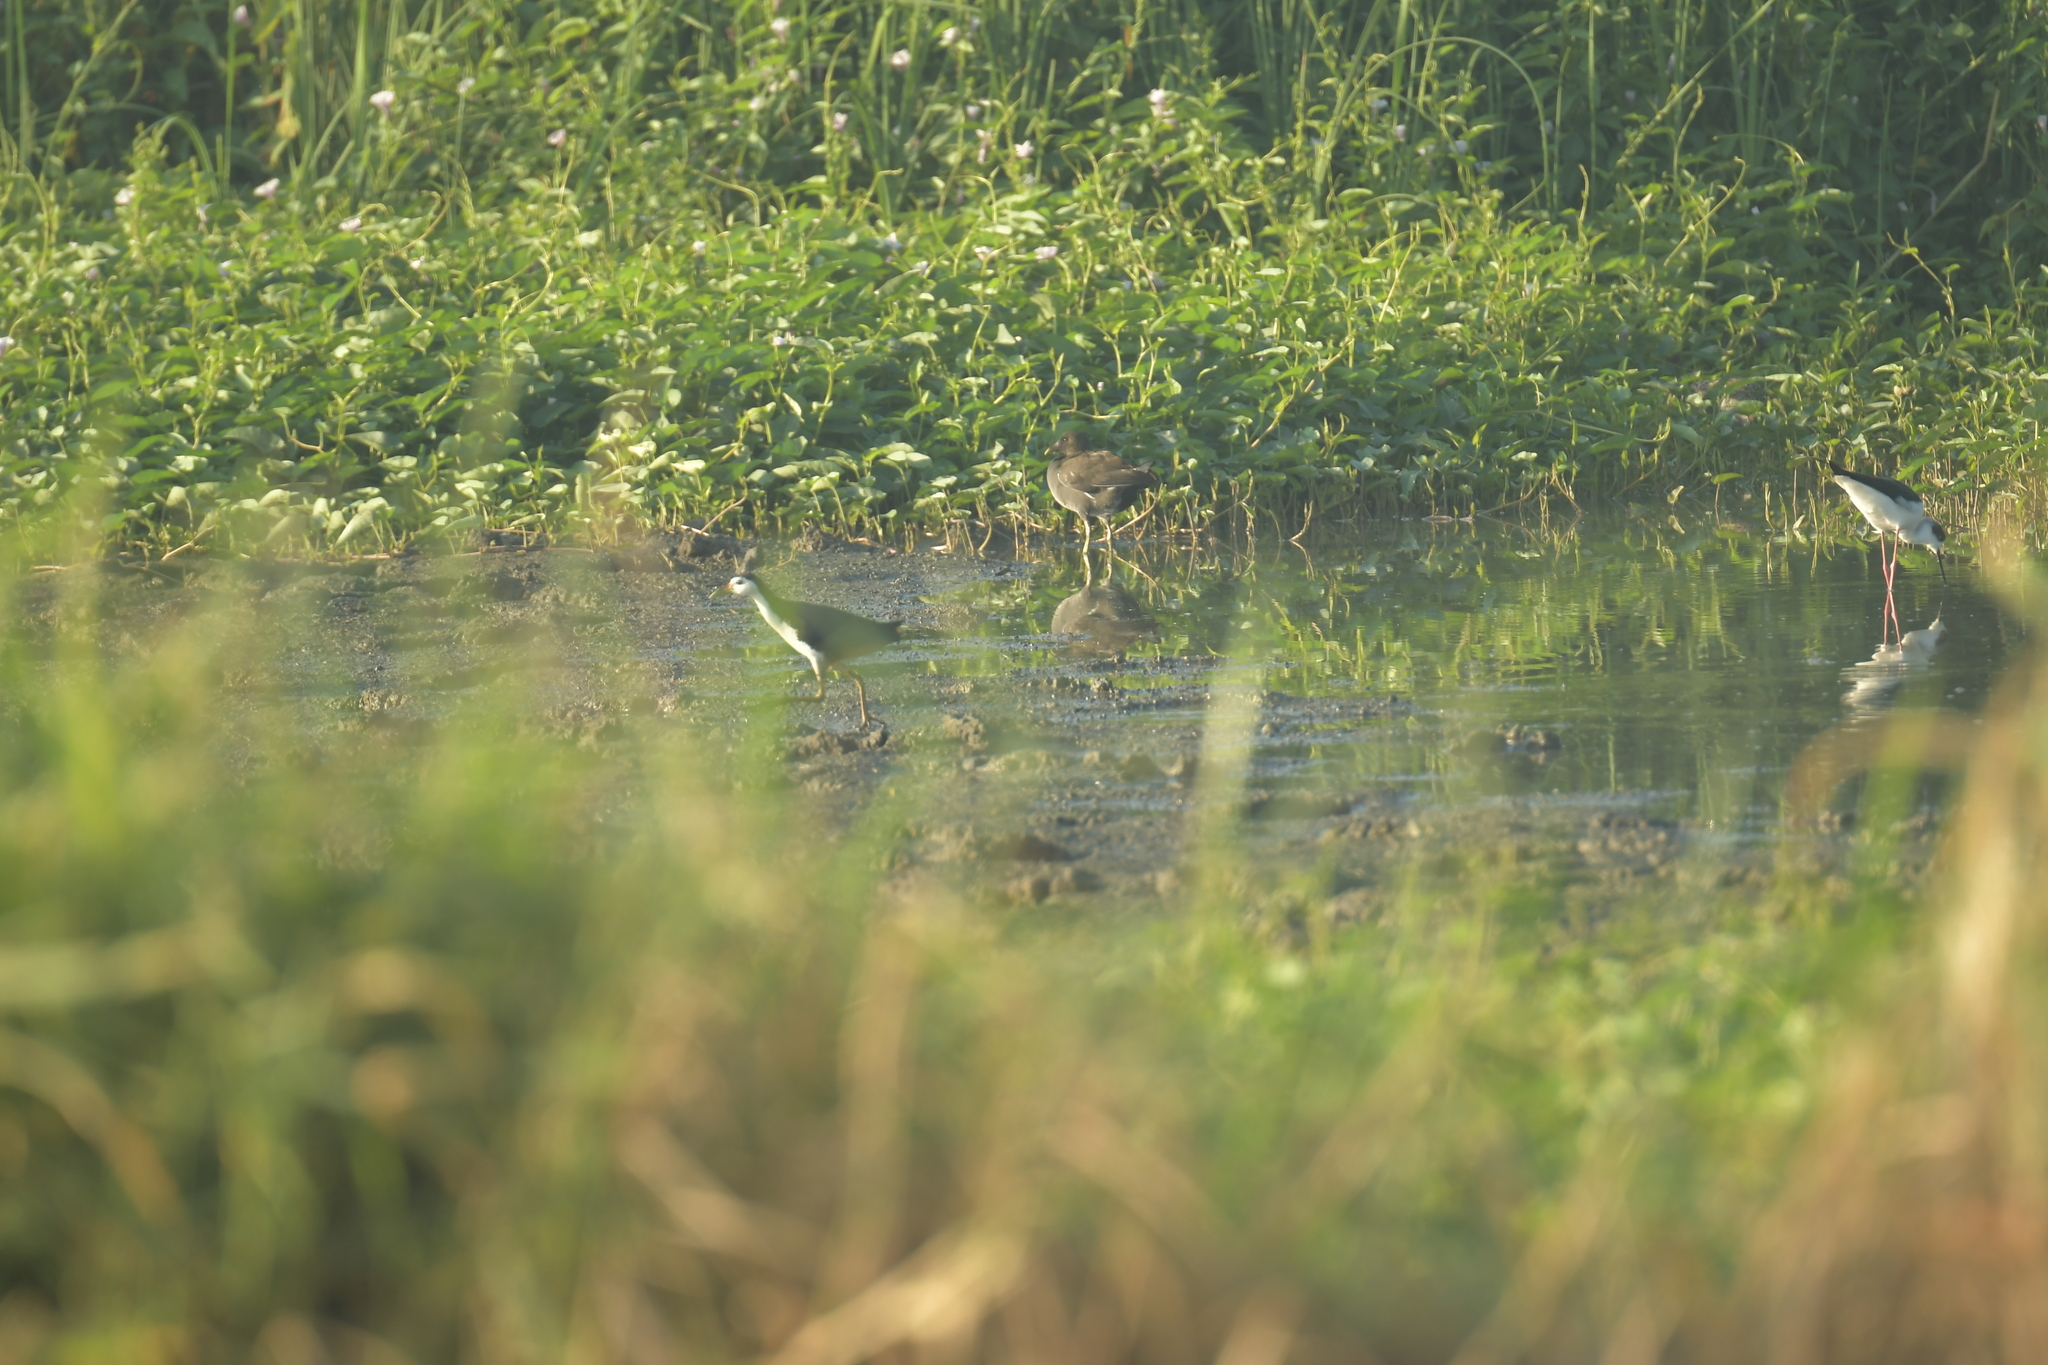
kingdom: Animalia
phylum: Chordata
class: Aves
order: Gruiformes
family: Rallidae
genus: Amaurornis
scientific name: Amaurornis phoenicurus
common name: White-breasted waterhen
